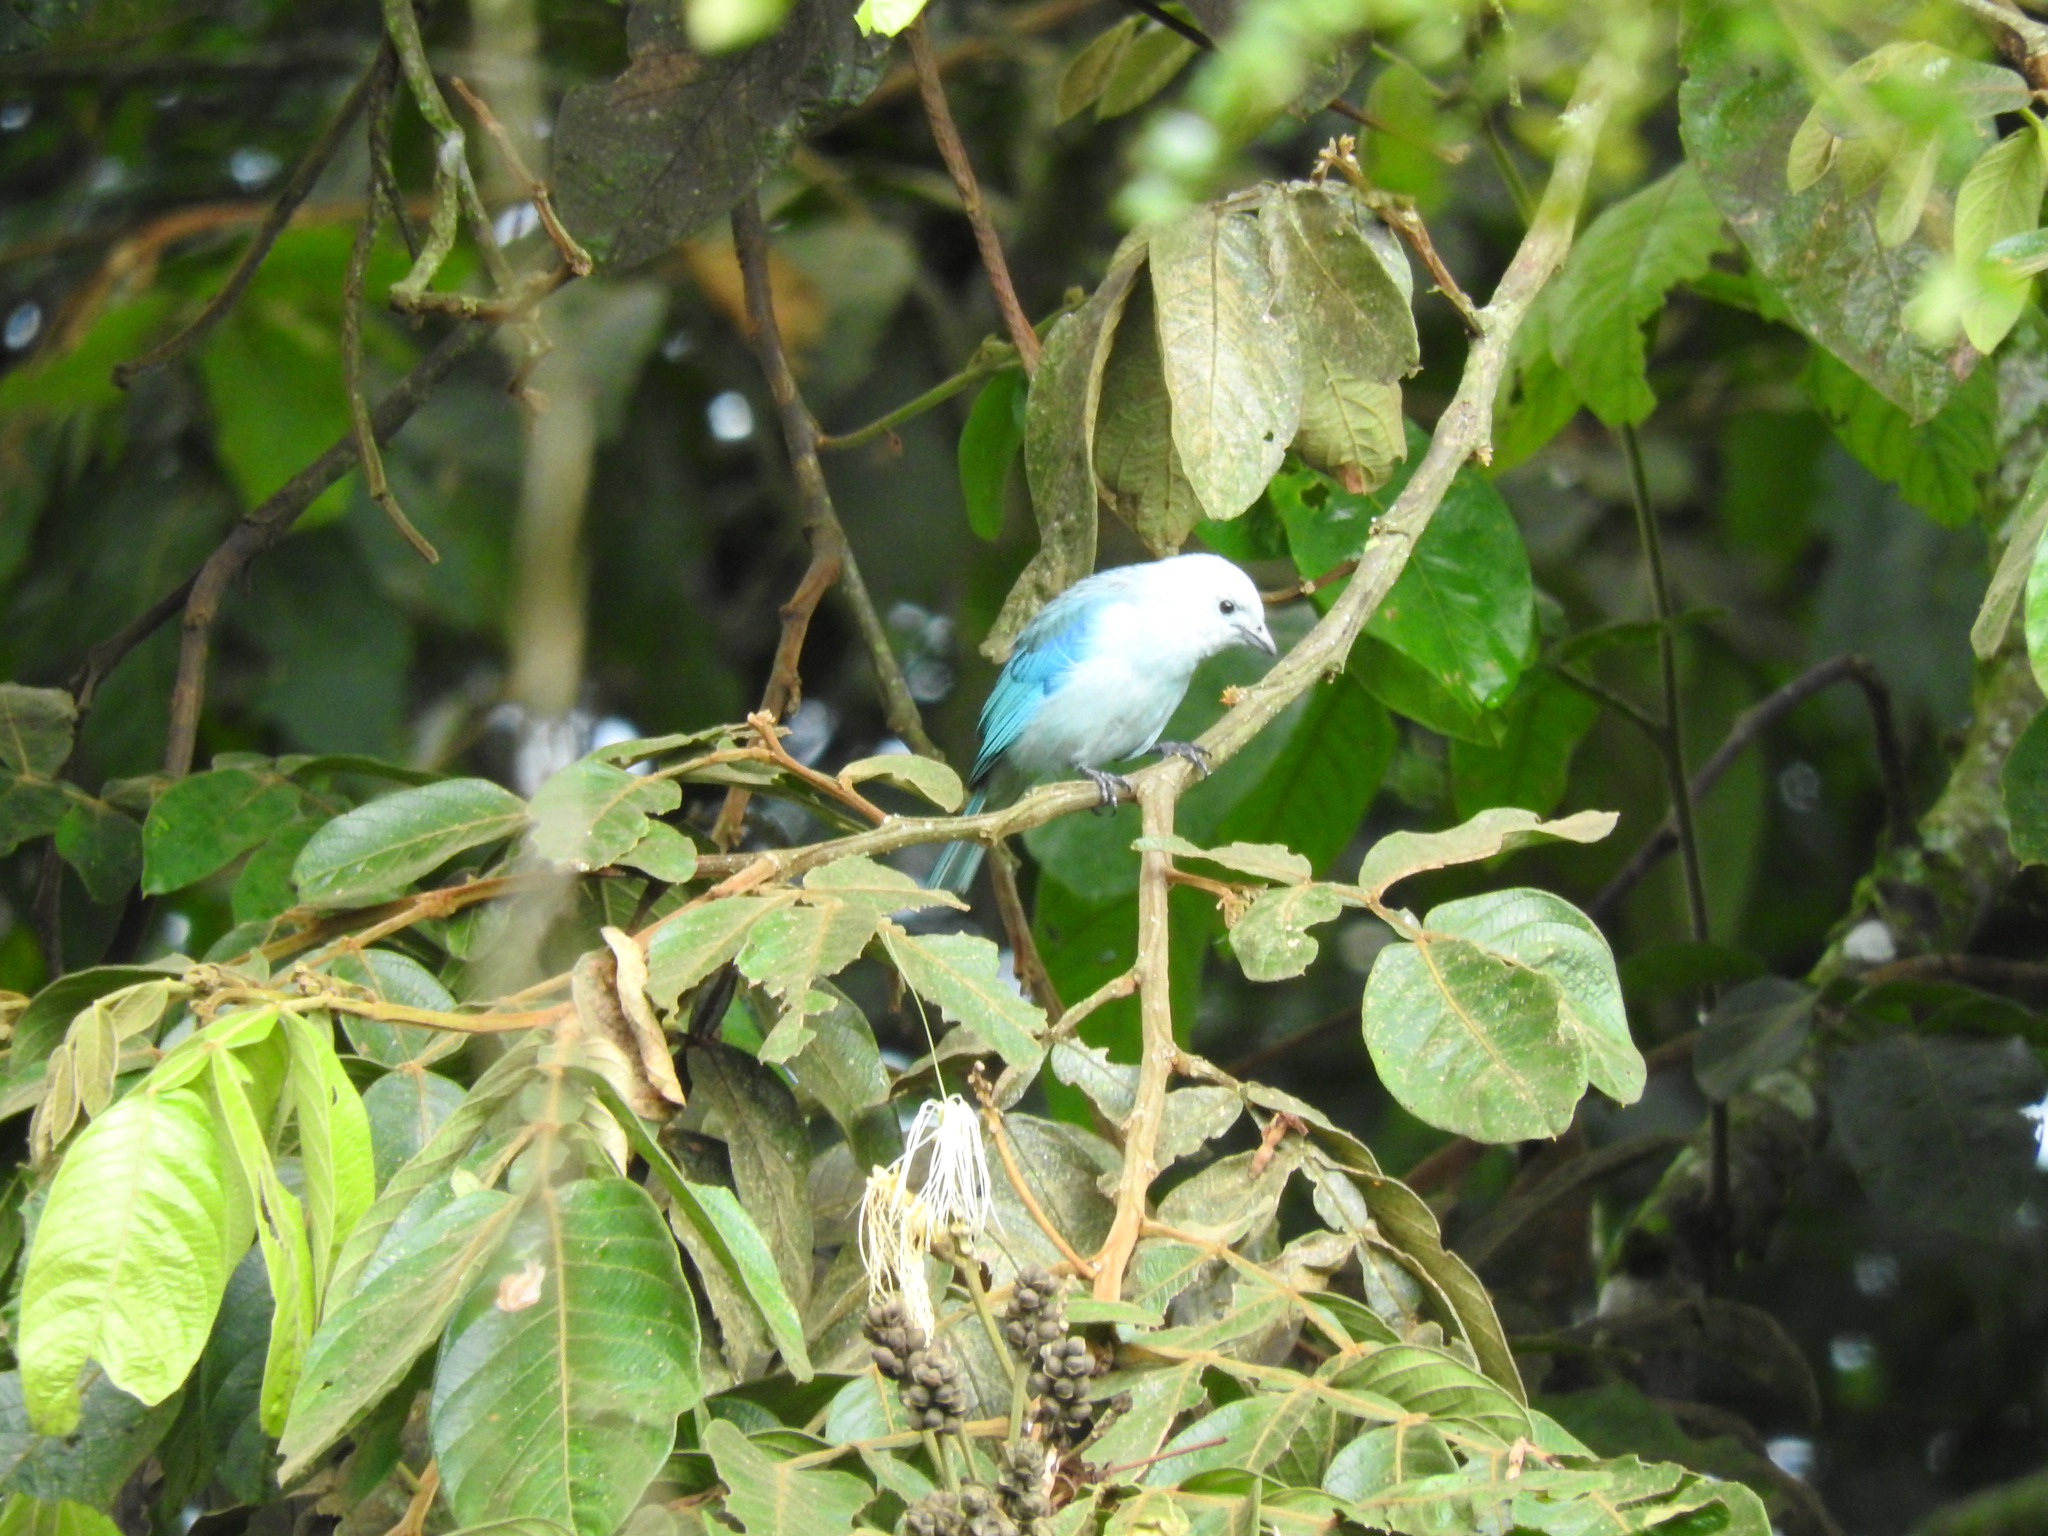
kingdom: Animalia
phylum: Chordata
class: Aves
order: Passeriformes
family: Thraupidae
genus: Thraupis
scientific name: Thraupis episcopus
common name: Blue-grey tanager
